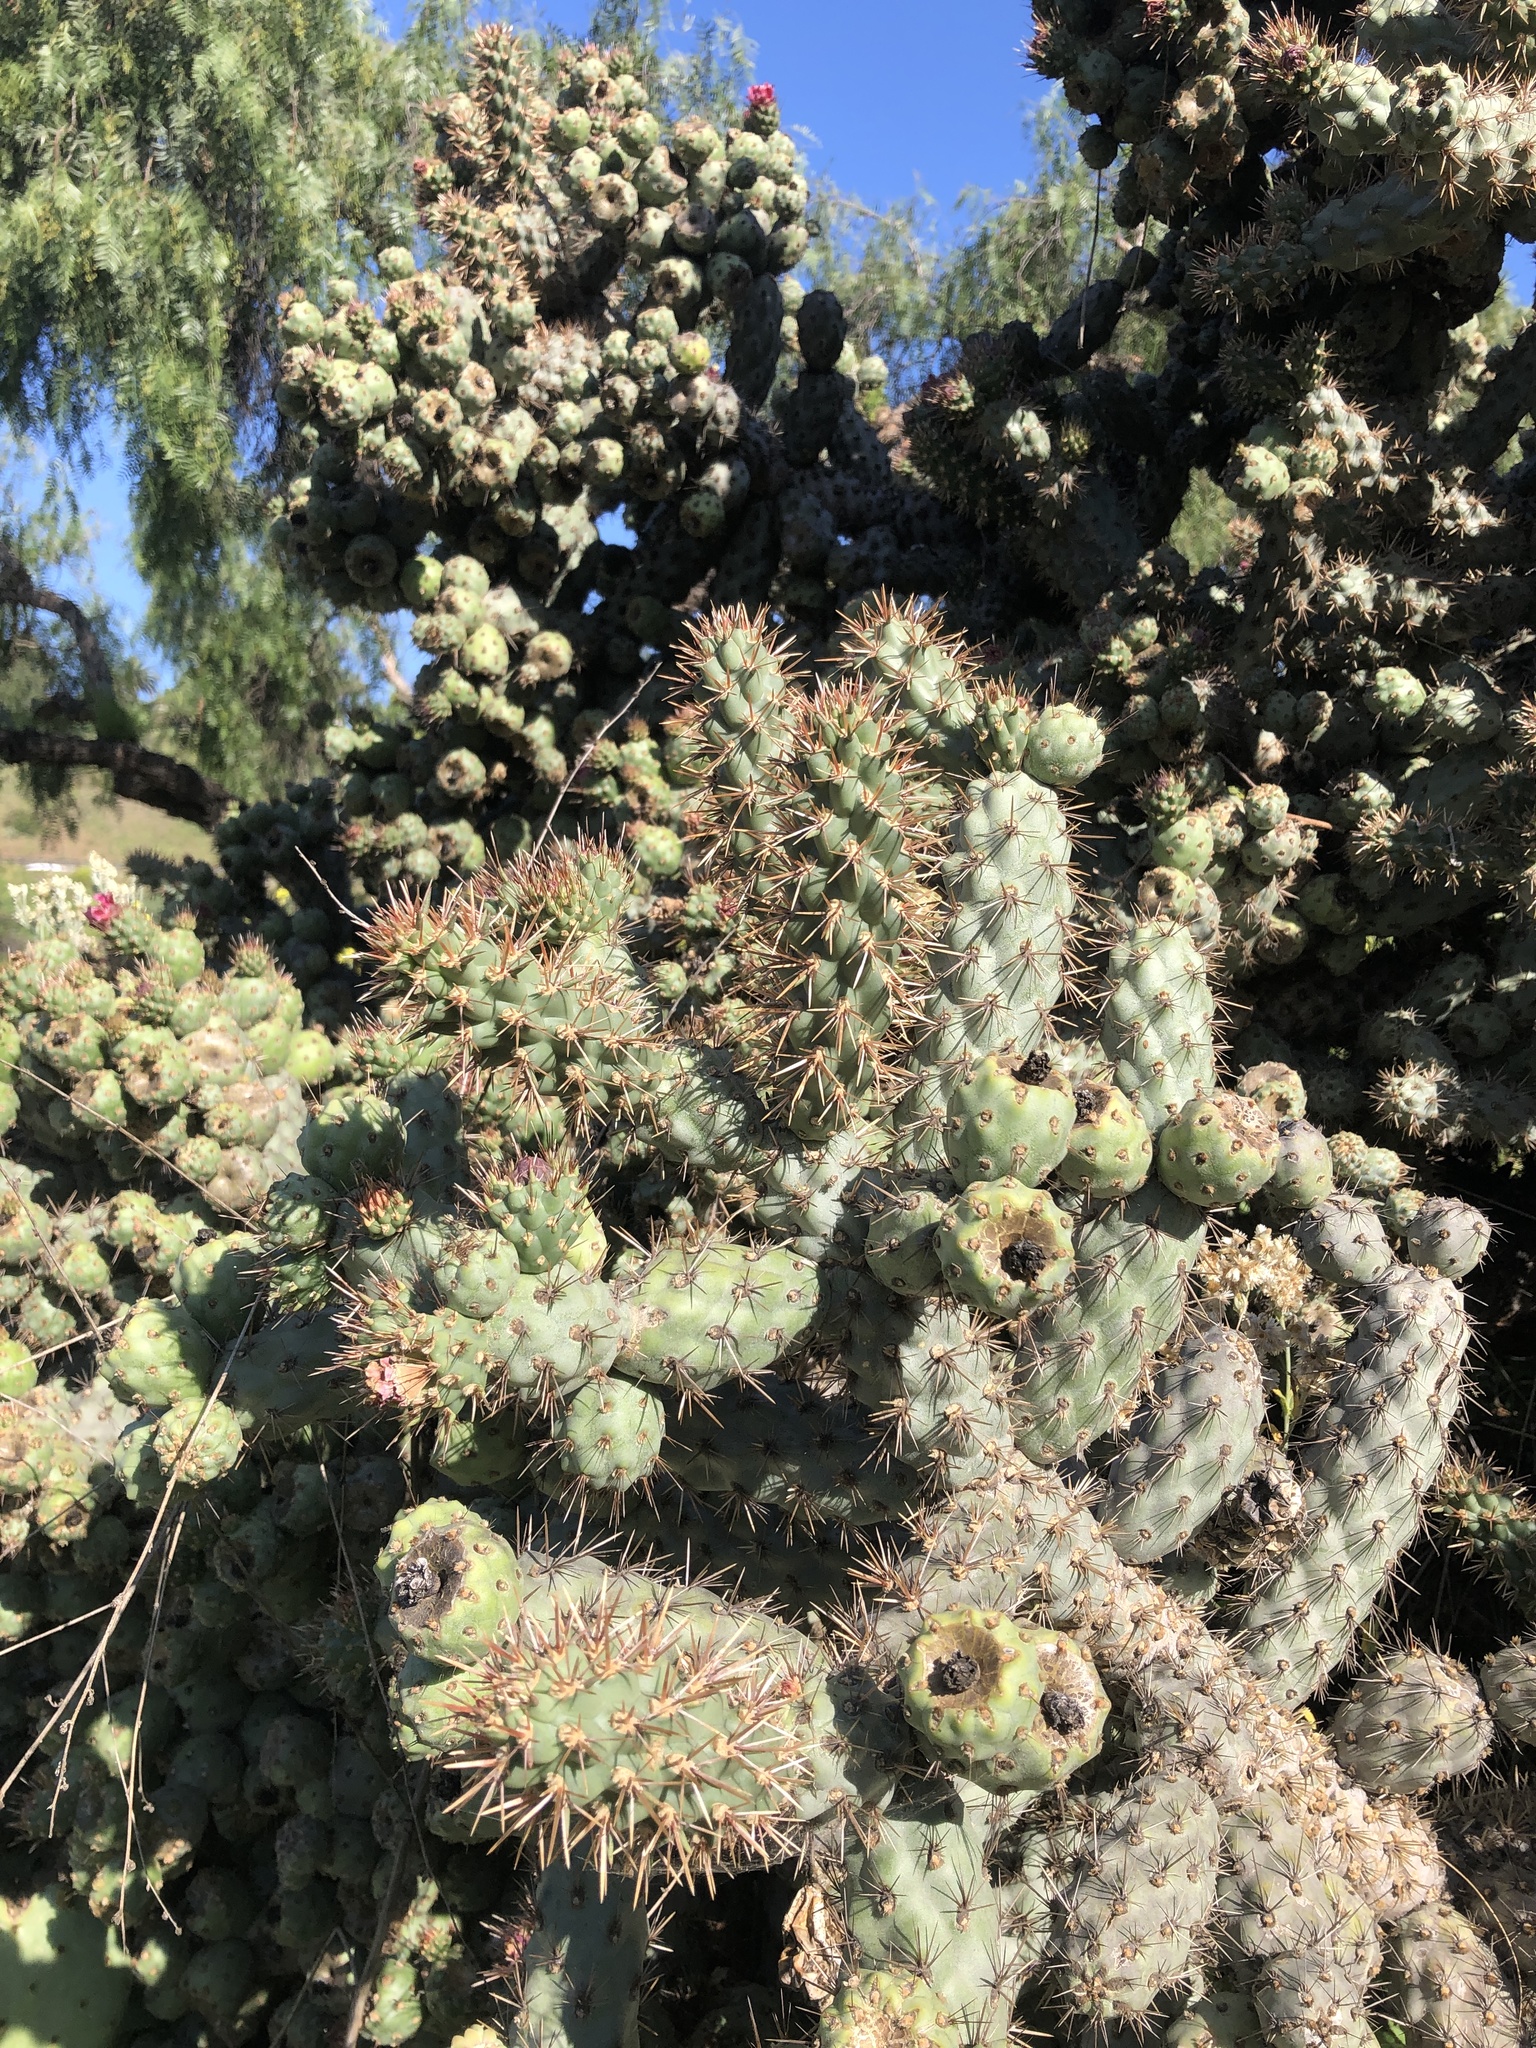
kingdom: Plantae
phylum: Tracheophyta
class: Magnoliopsida
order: Caryophyllales
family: Cactaceae
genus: Cylindropuntia
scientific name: Cylindropuntia prolifera
